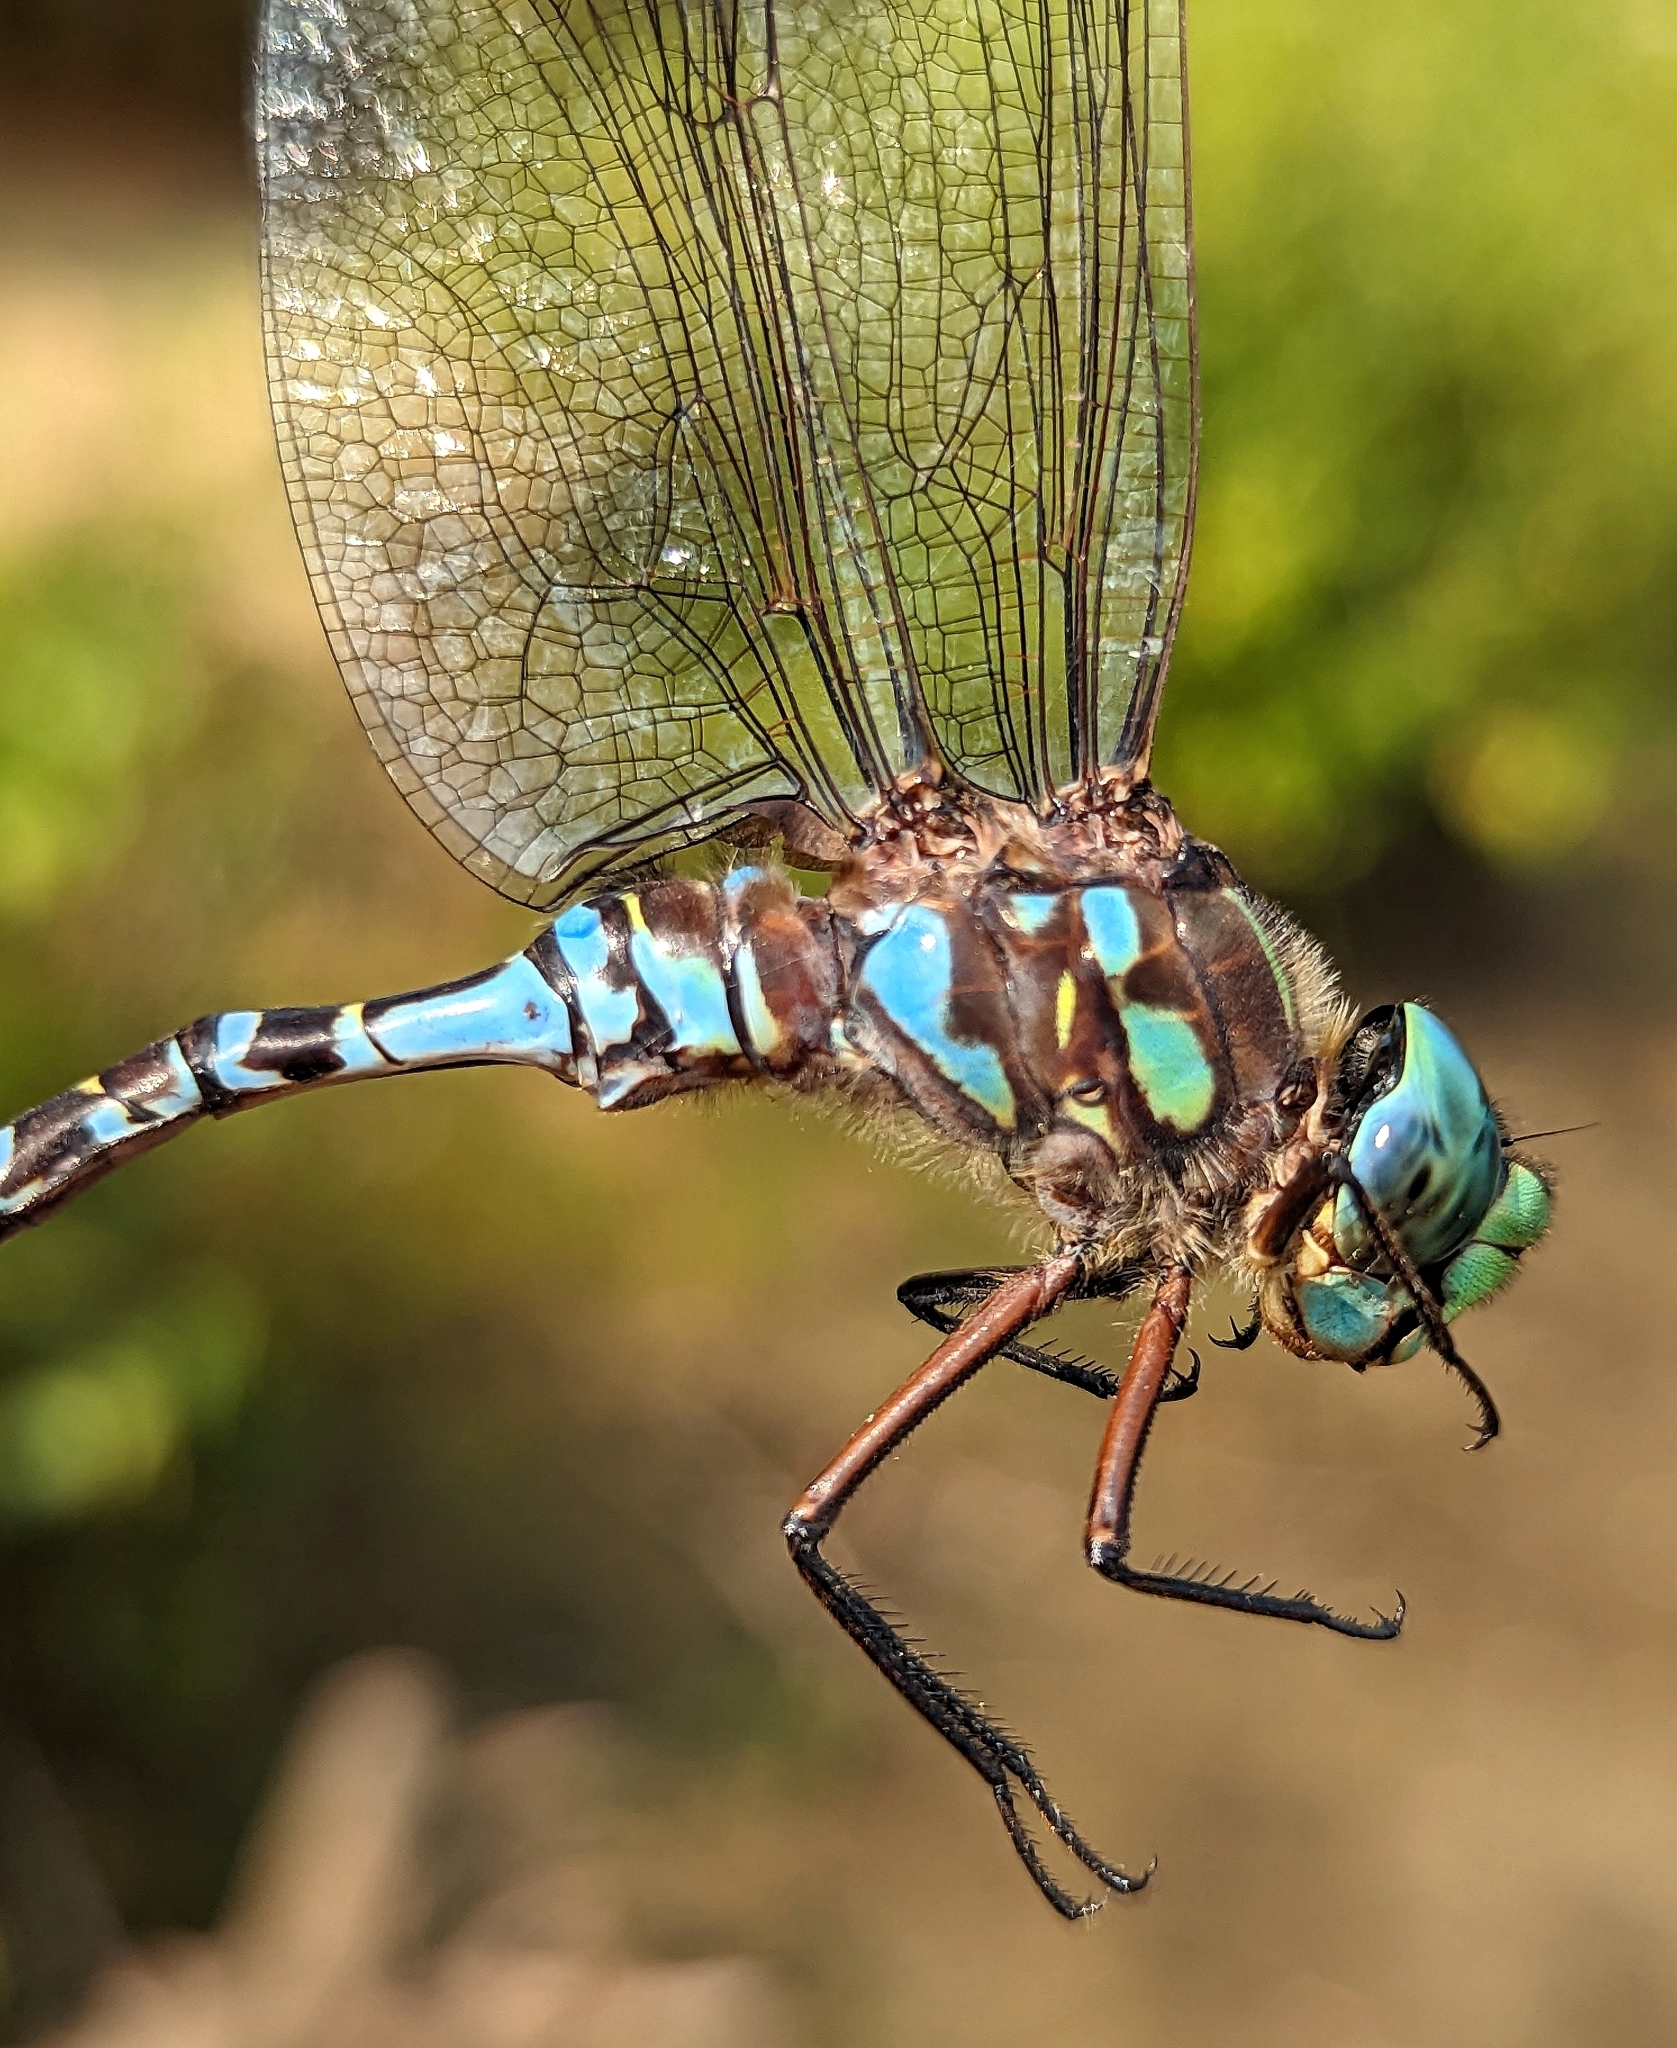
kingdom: Animalia
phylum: Arthropoda
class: Insecta
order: Odonata
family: Aeshnidae
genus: Aeshna
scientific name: Aeshna eremita
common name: Lake darner
